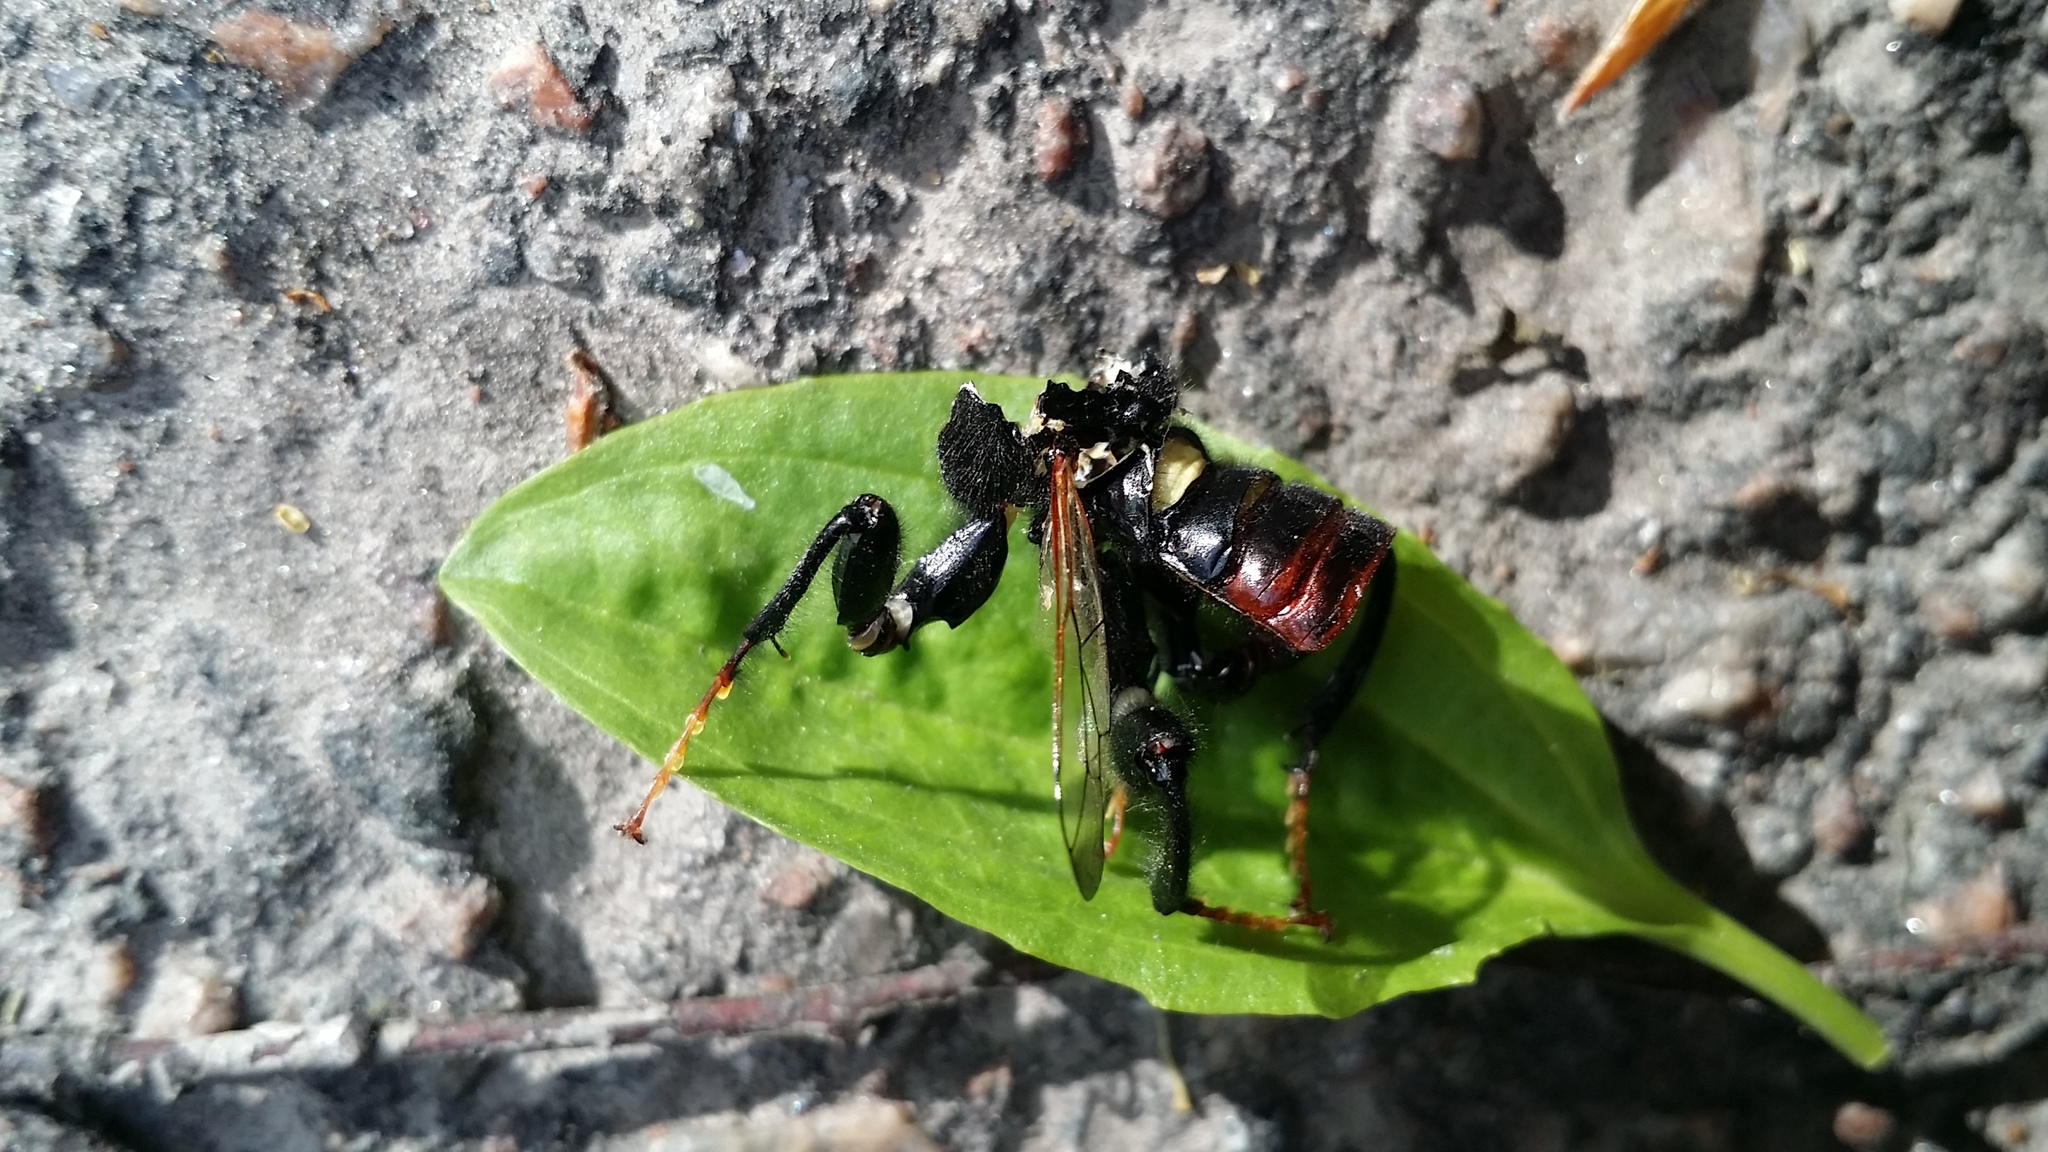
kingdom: Animalia
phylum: Arthropoda
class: Insecta
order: Hymenoptera
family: Cimbicidae
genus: Cimbex
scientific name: Cimbex femoratus
